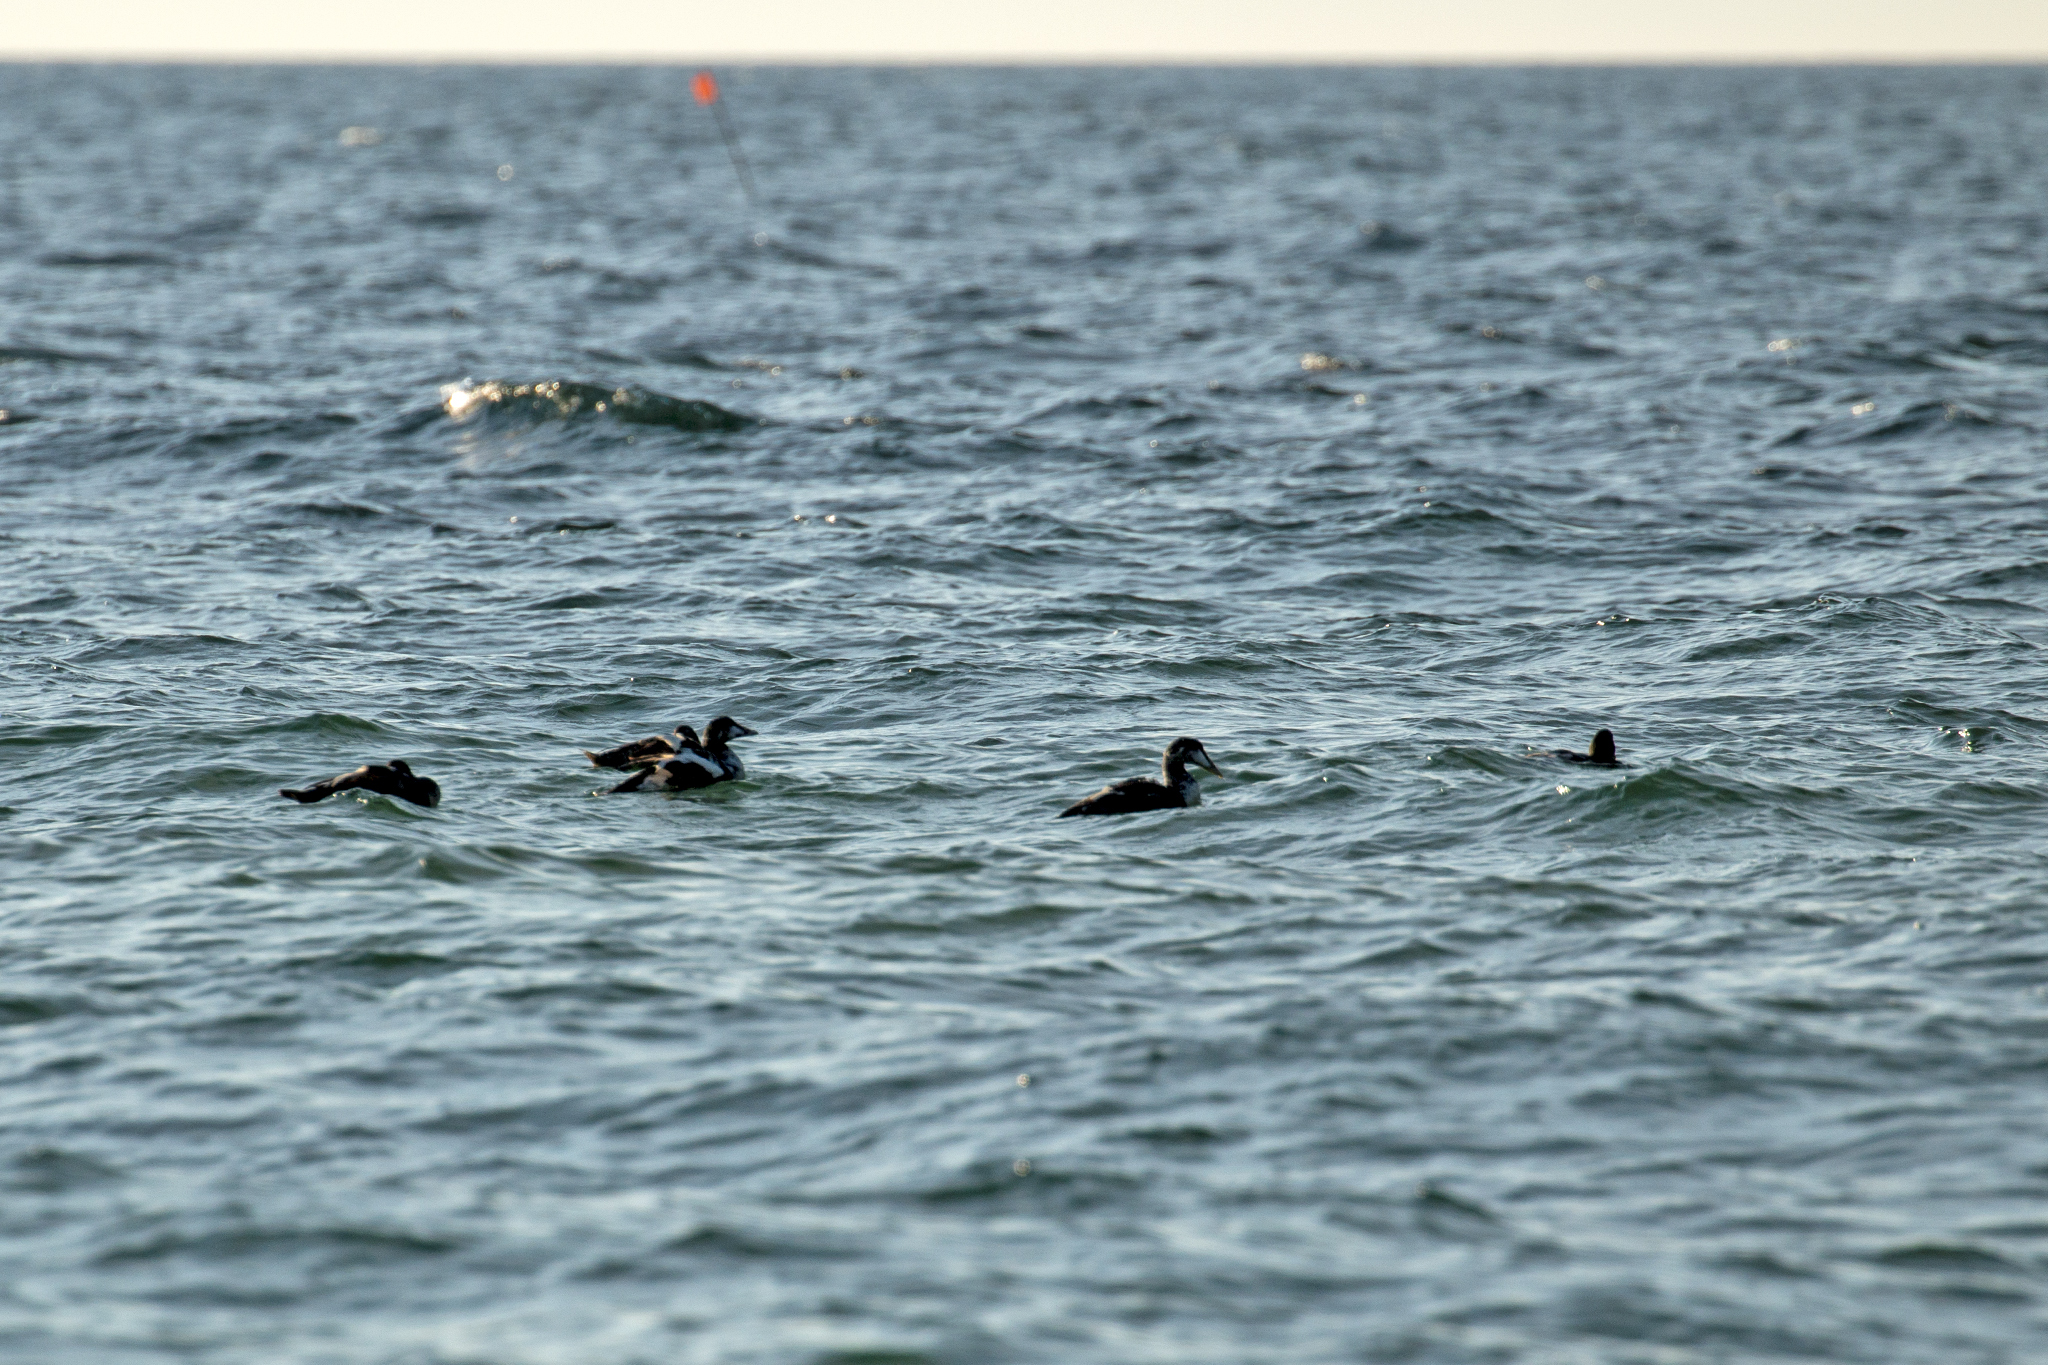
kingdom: Animalia
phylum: Chordata
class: Aves
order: Anseriformes
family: Anatidae
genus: Somateria
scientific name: Somateria mollissima
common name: Common eider
